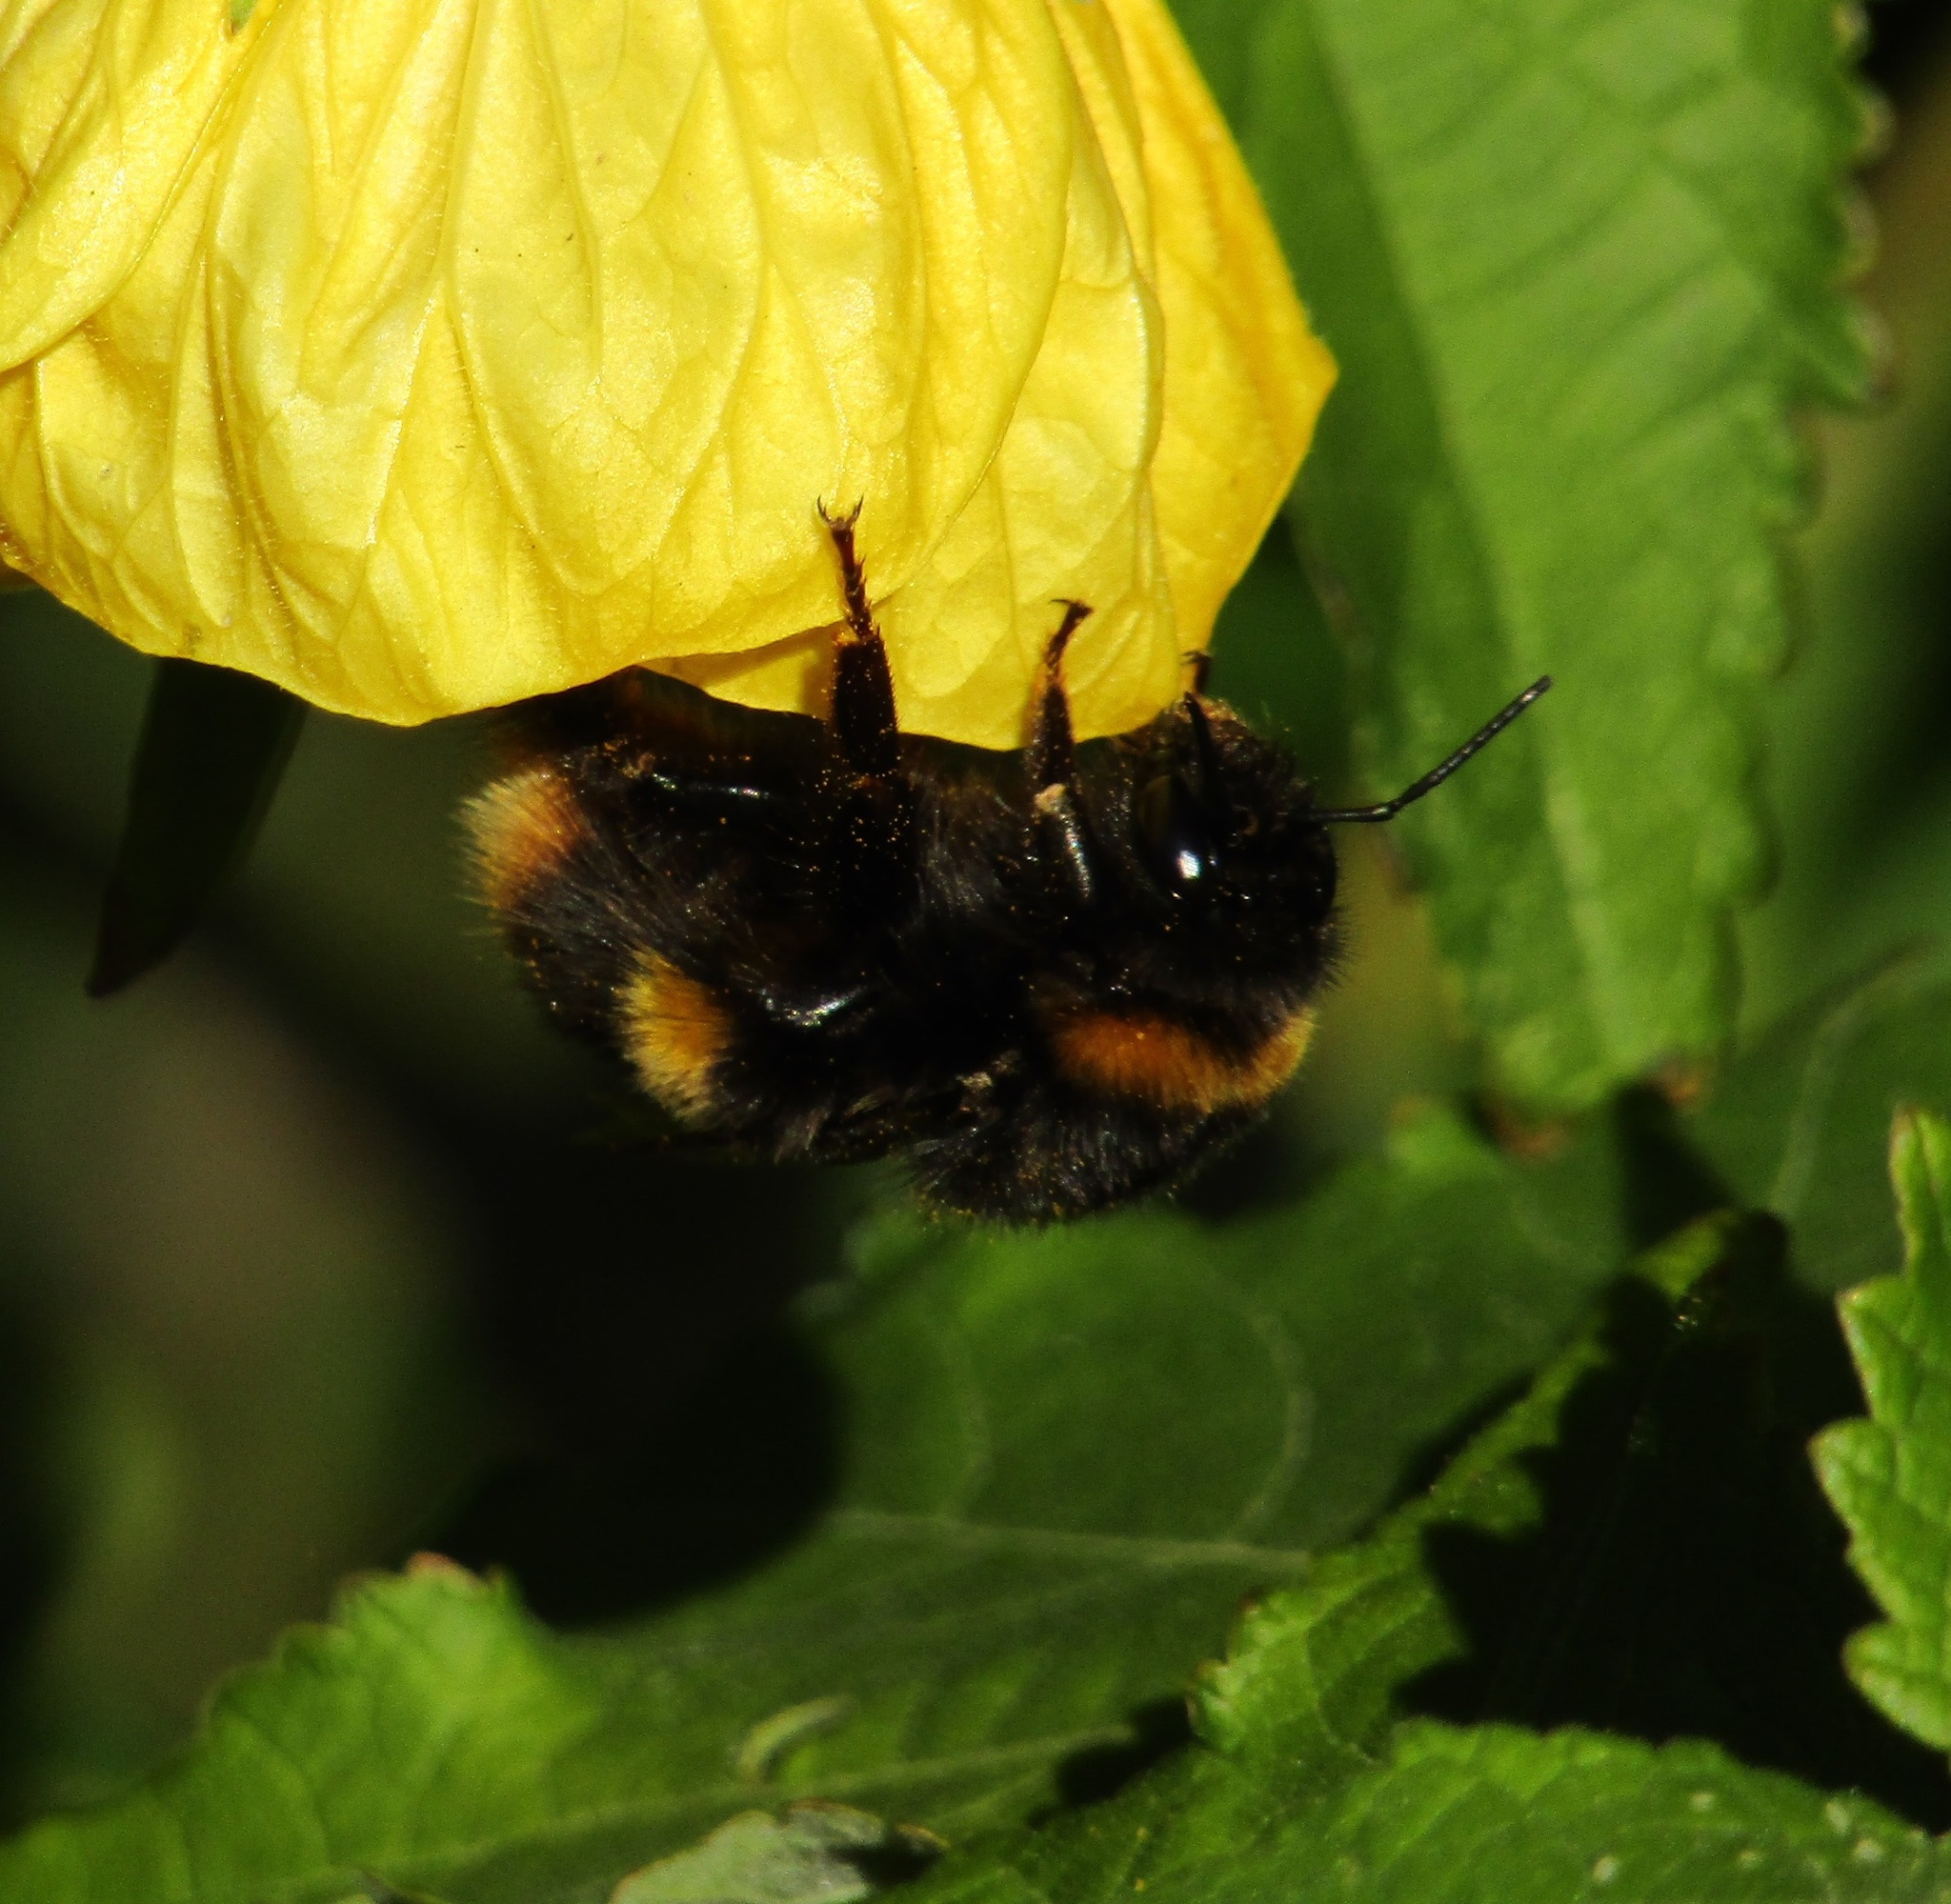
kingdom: Animalia
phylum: Arthropoda
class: Insecta
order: Hymenoptera
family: Apidae
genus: Bombus
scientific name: Bombus terrestris
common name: Buff-tailed bumblebee
